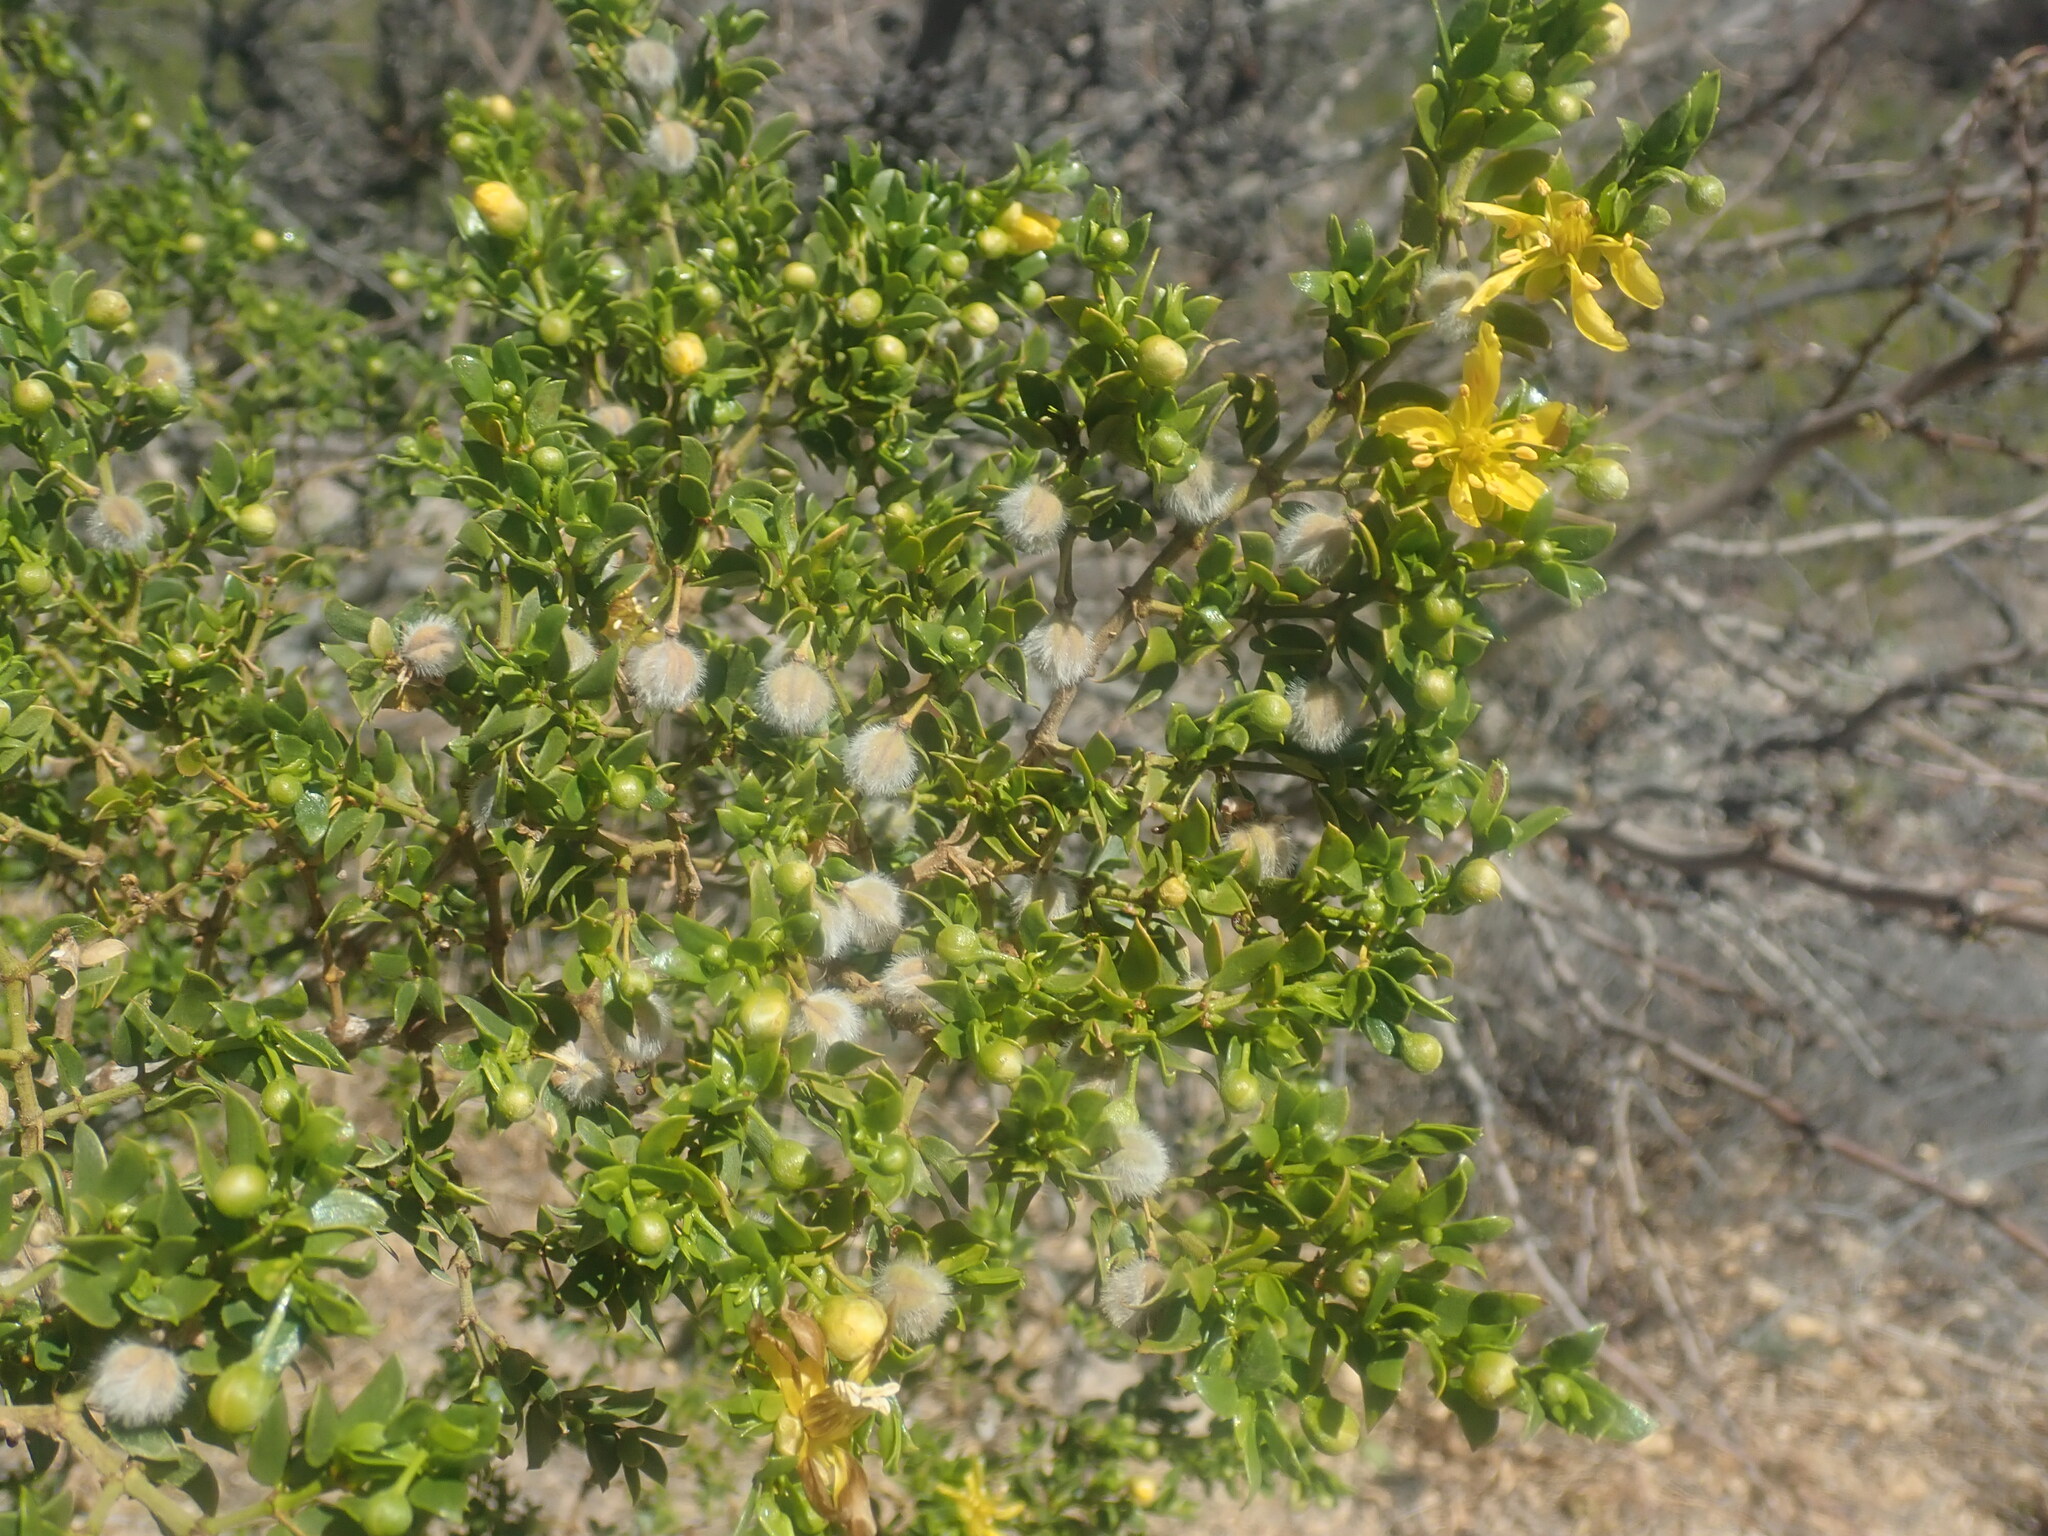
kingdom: Plantae
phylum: Tracheophyta
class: Magnoliopsida
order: Zygophyllales
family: Zygophyllaceae
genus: Larrea
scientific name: Larrea tridentata
